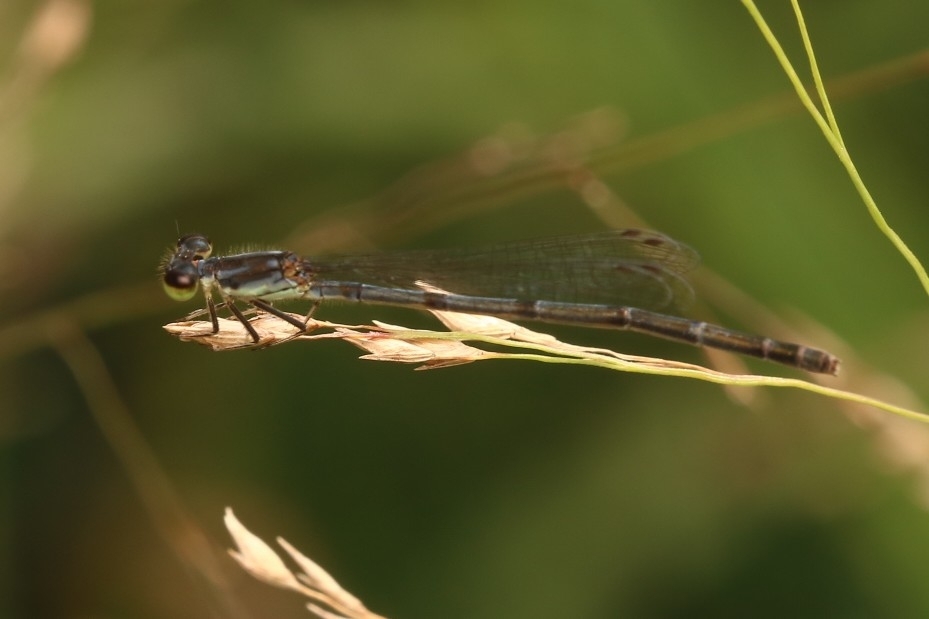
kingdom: Animalia
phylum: Arthropoda
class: Insecta
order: Odonata
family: Coenagrionidae
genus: Ischnura
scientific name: Ischnura posita
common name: Fragile forktail
